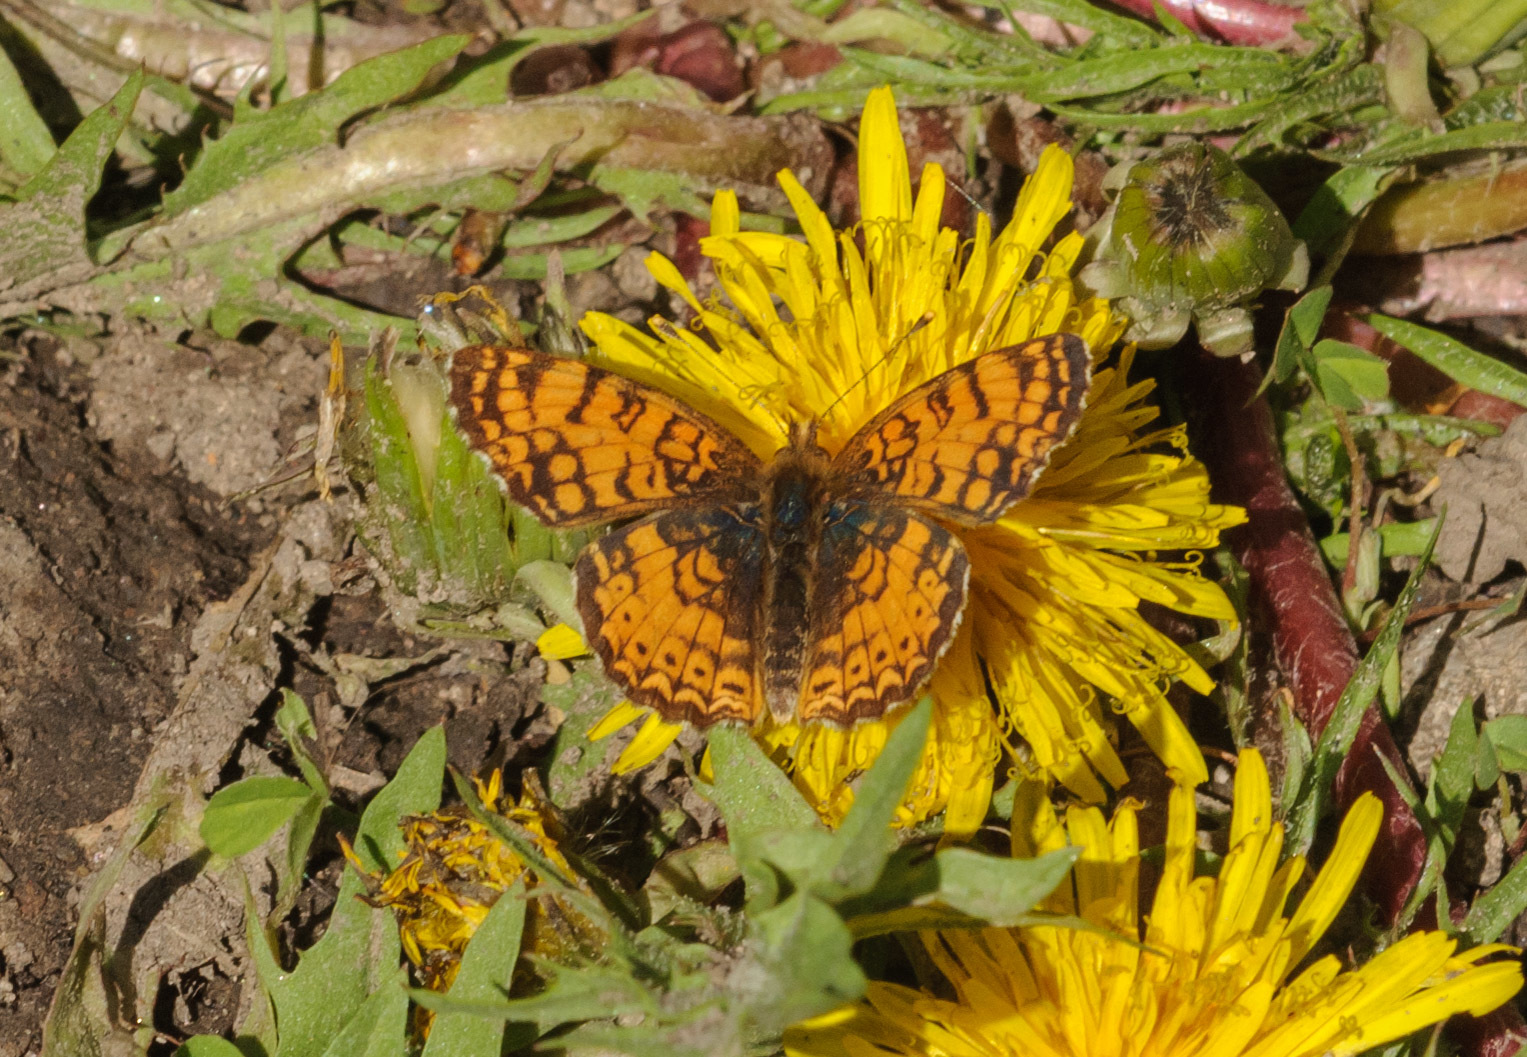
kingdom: Animalia
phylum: Arthropoda
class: Insecta
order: Lepidoptera
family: Nymphalidae
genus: Eresia
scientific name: Eresia aveyrona
